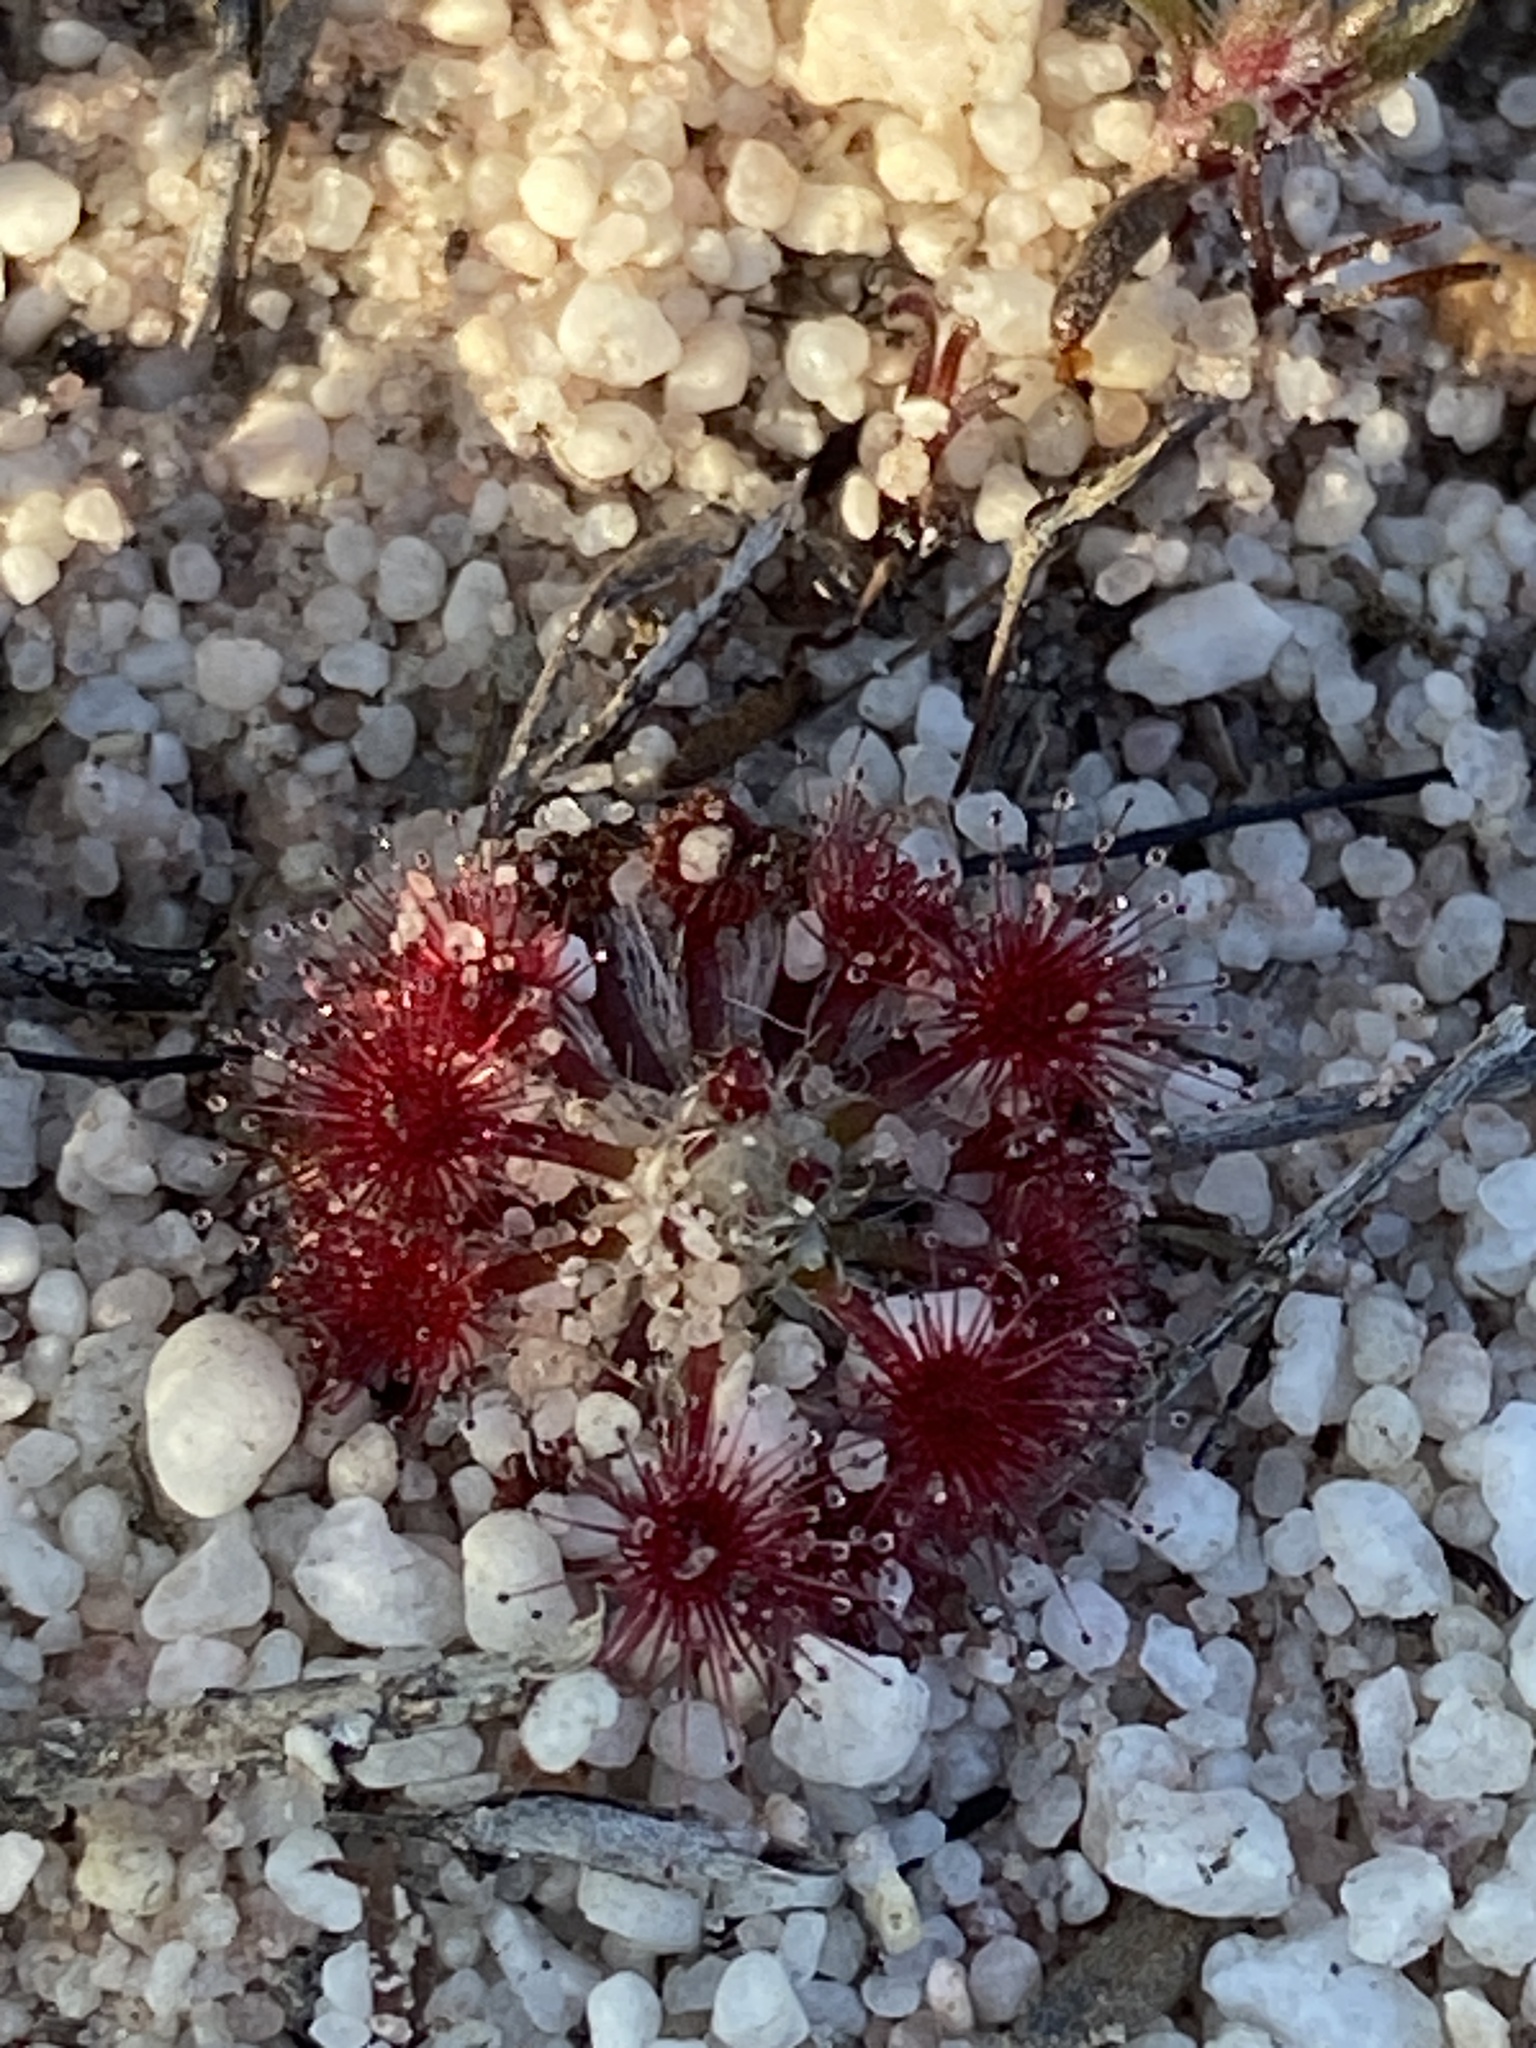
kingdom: Plantae
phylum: Tracheophyta
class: Magnoliopsida
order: Caryophyllales
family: Droseraceae
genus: Drosera
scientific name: Drosera paleacea
